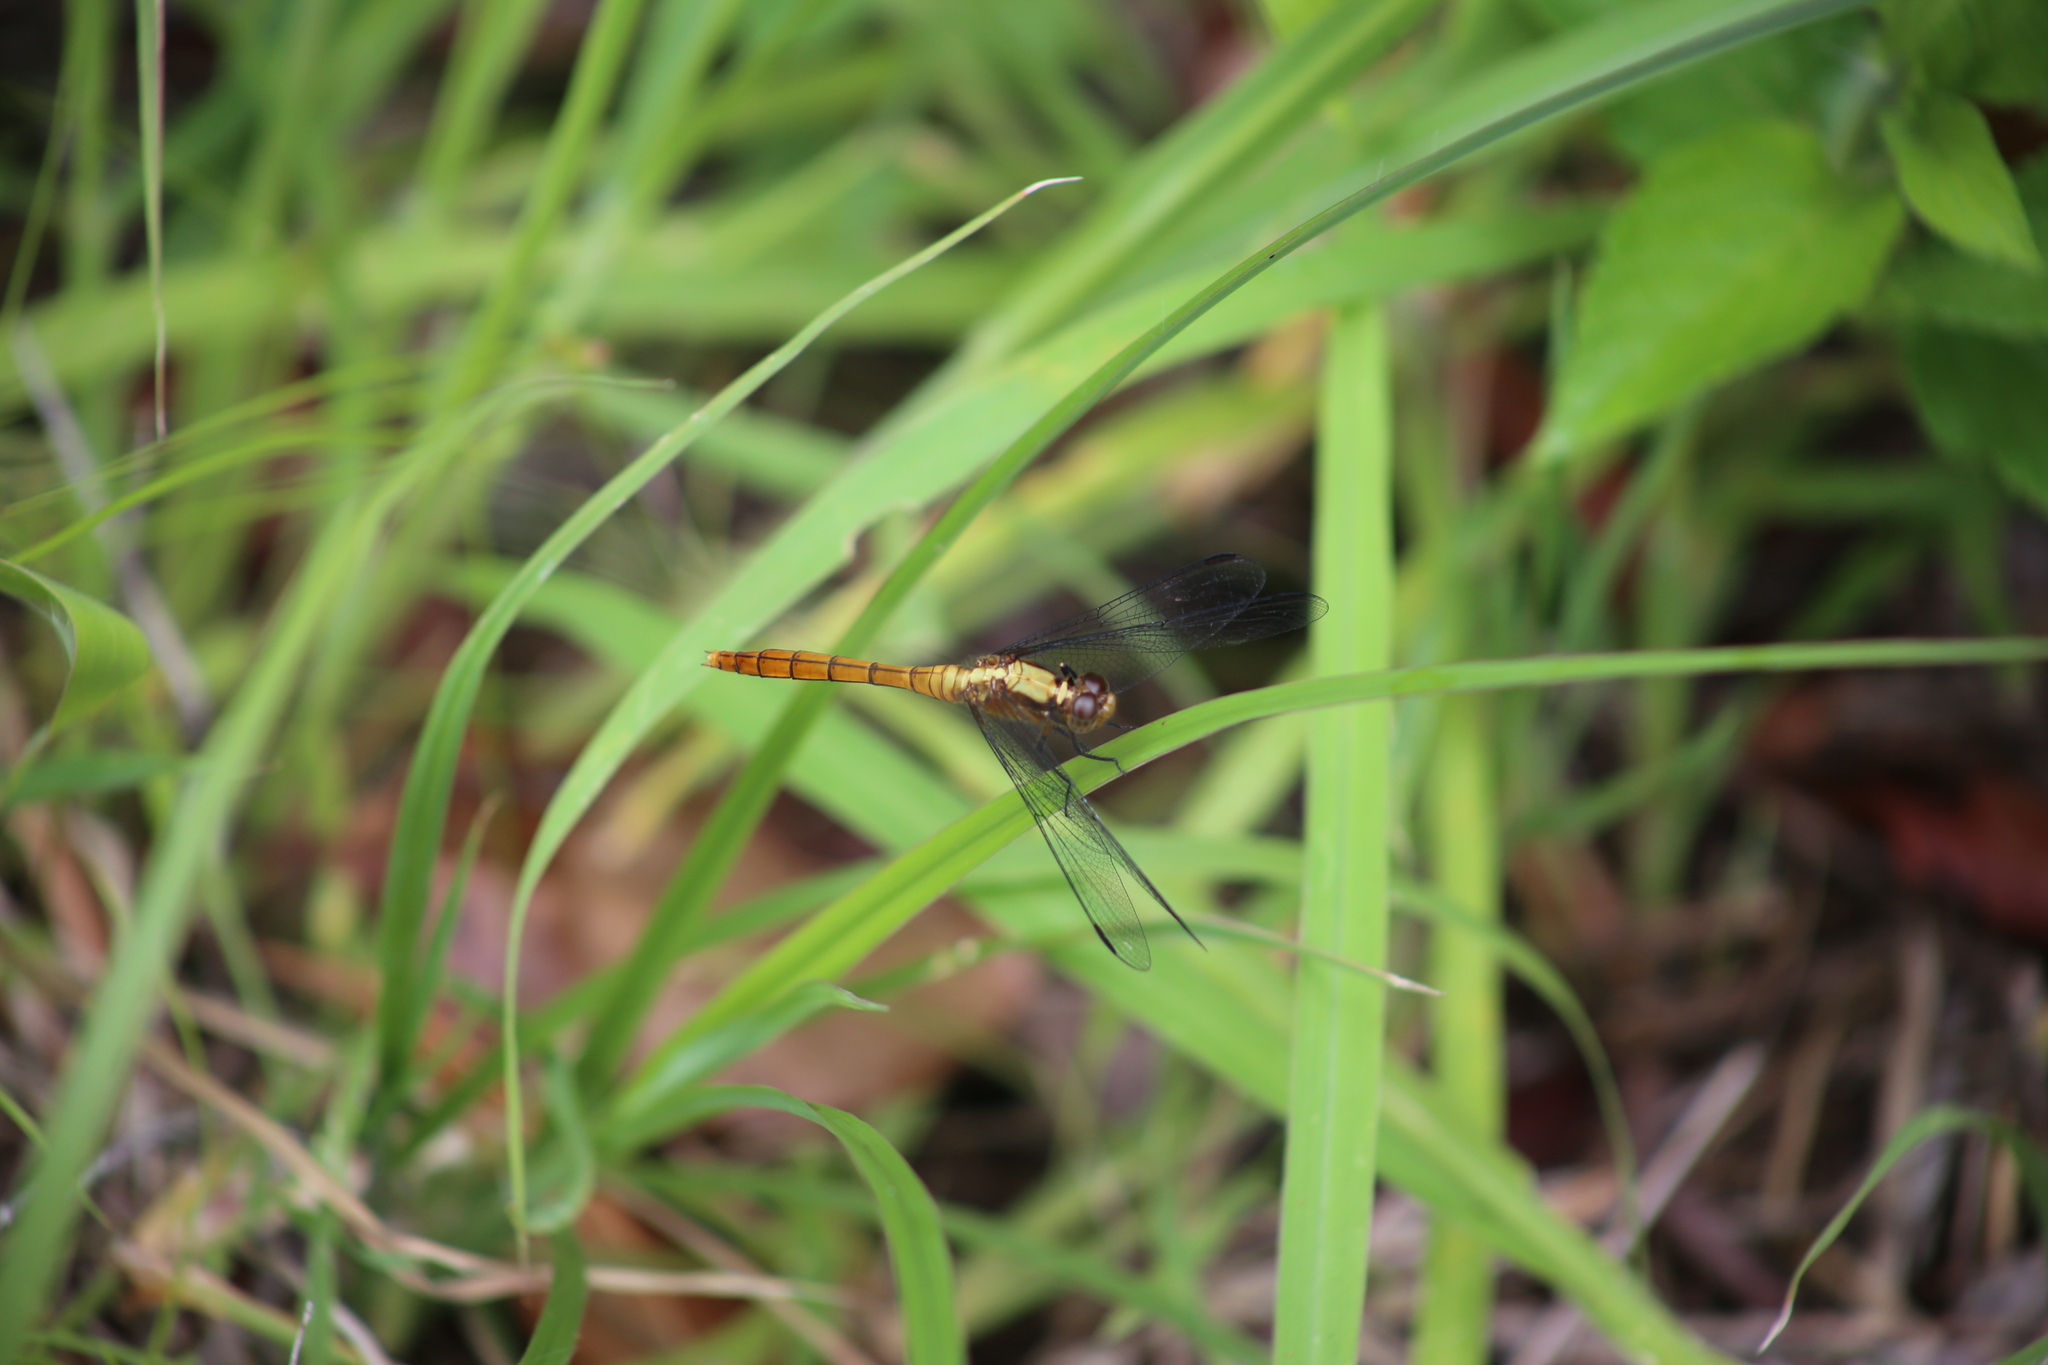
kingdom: Animalia
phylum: Arthropoda
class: Insecta
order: Odonata
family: Libellulidae
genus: Orthetrum
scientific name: Orthetrum villosovittatum
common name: Firery skimmer
